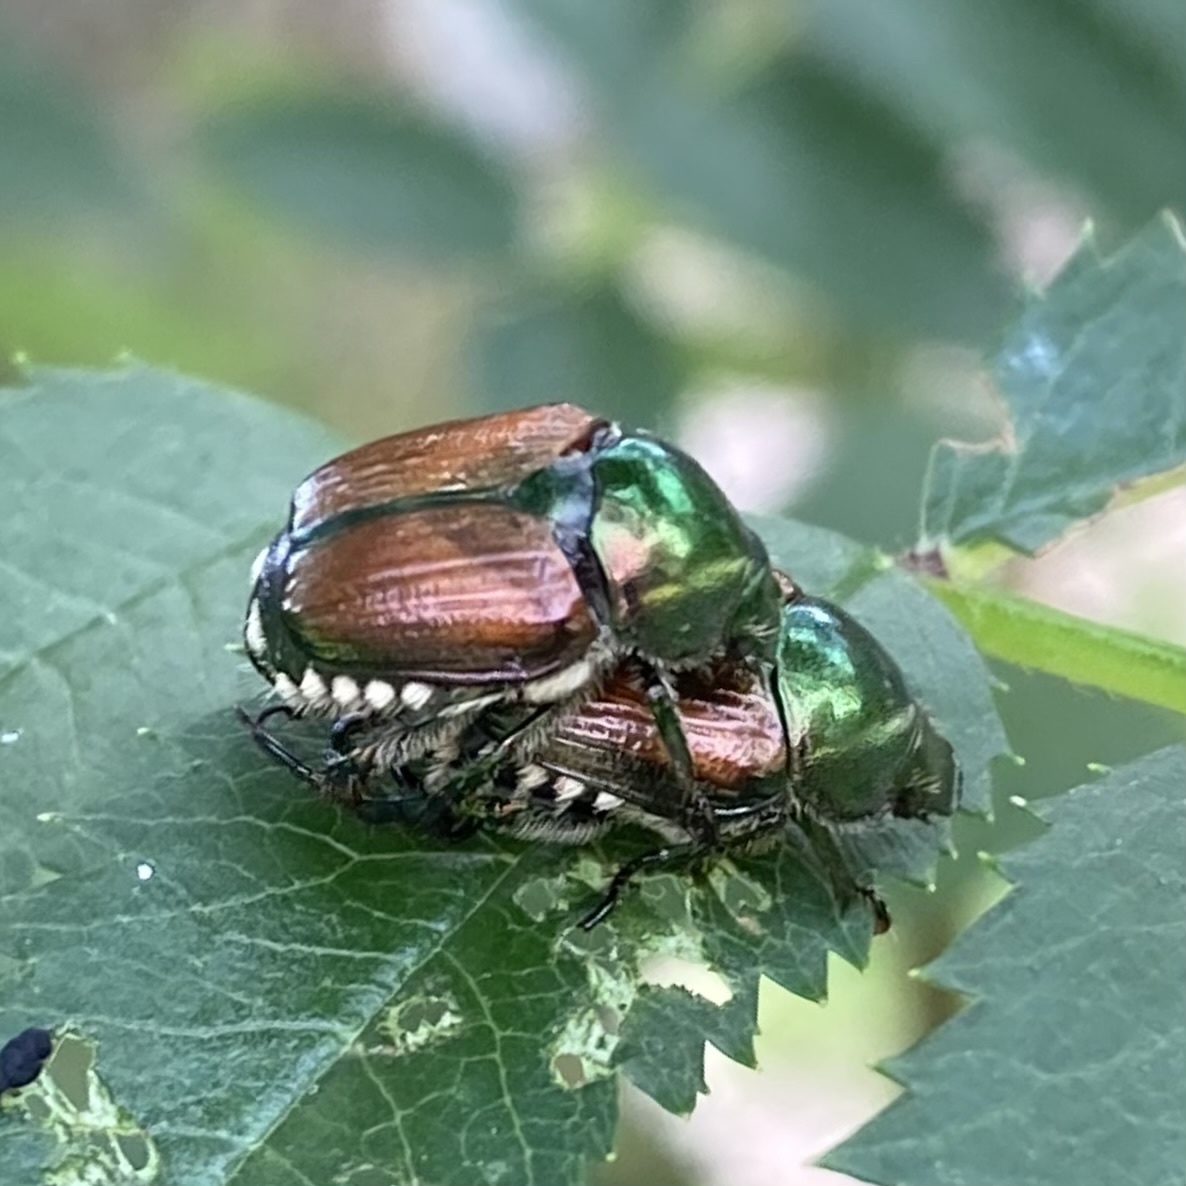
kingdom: Animalia
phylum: Arthropoda
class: Insecta
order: Coleoptera
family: Scarabaeidae
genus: Popillia
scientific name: Popillia japonica
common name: Japanese beetle
